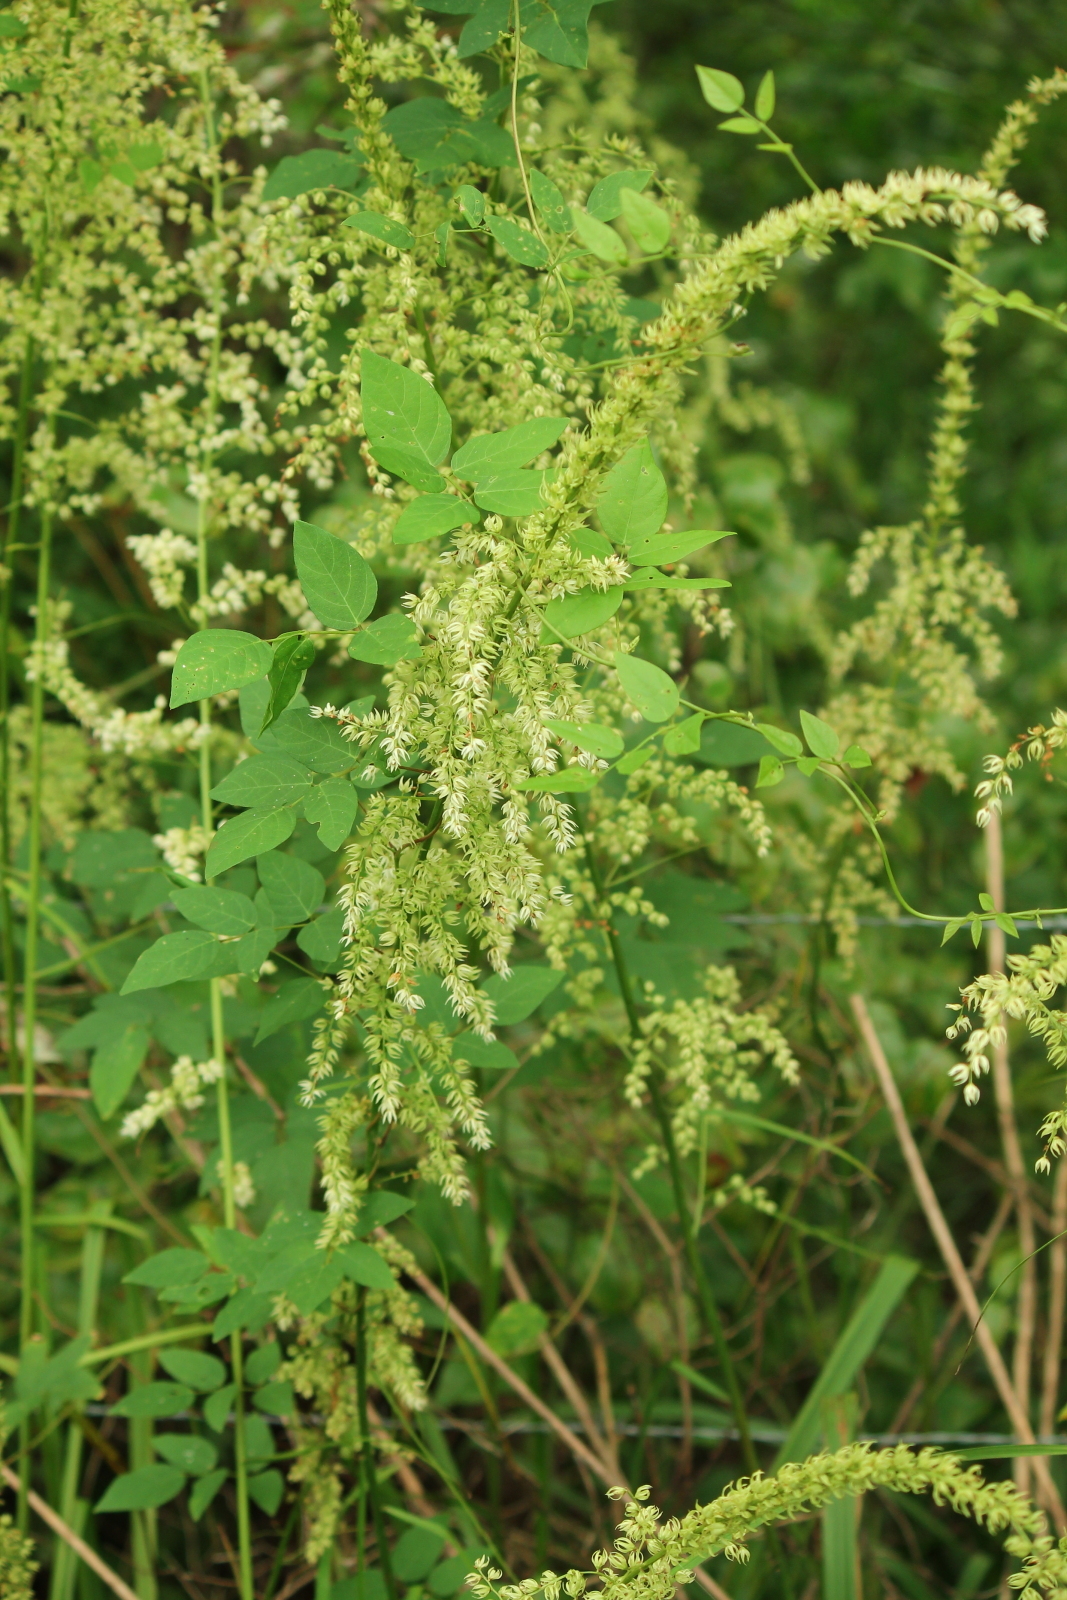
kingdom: Plantae
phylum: Tracheophyta
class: Liliopsida
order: Liliales
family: Melanthiaceae
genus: Stenanthium
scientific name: Stenanthium gramineum
